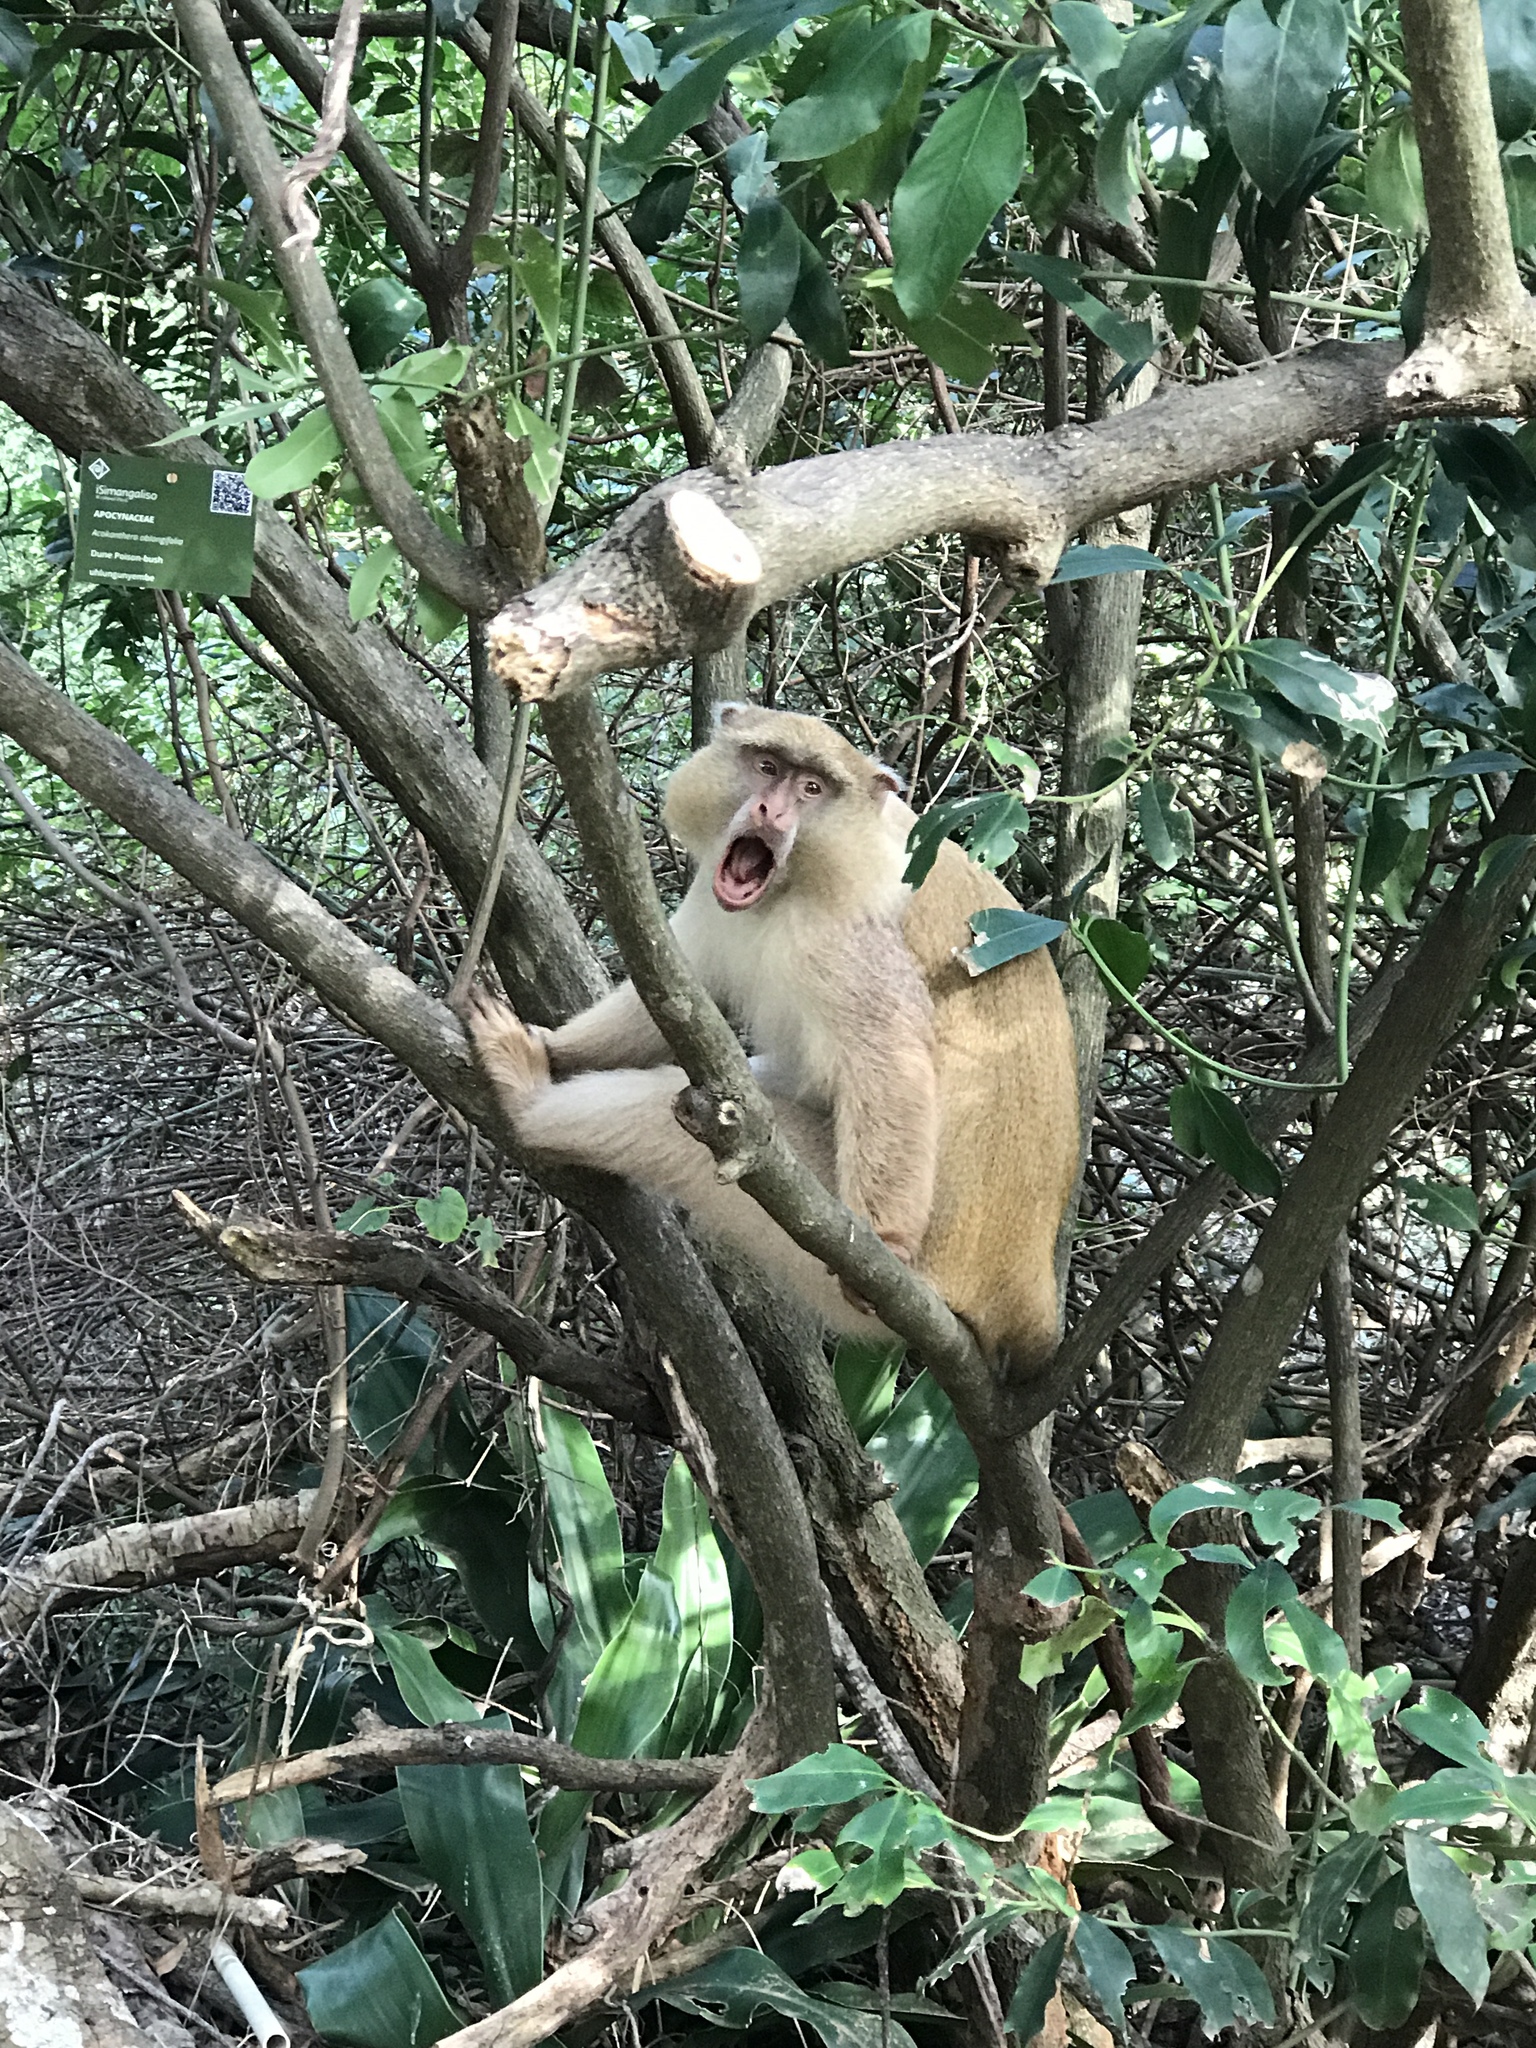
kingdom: Animalia
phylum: Chordata
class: Mammalia
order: Primates
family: Cercopithecidae
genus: Cercopithecus
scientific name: Cercopithecus mitis
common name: Blue monkey
